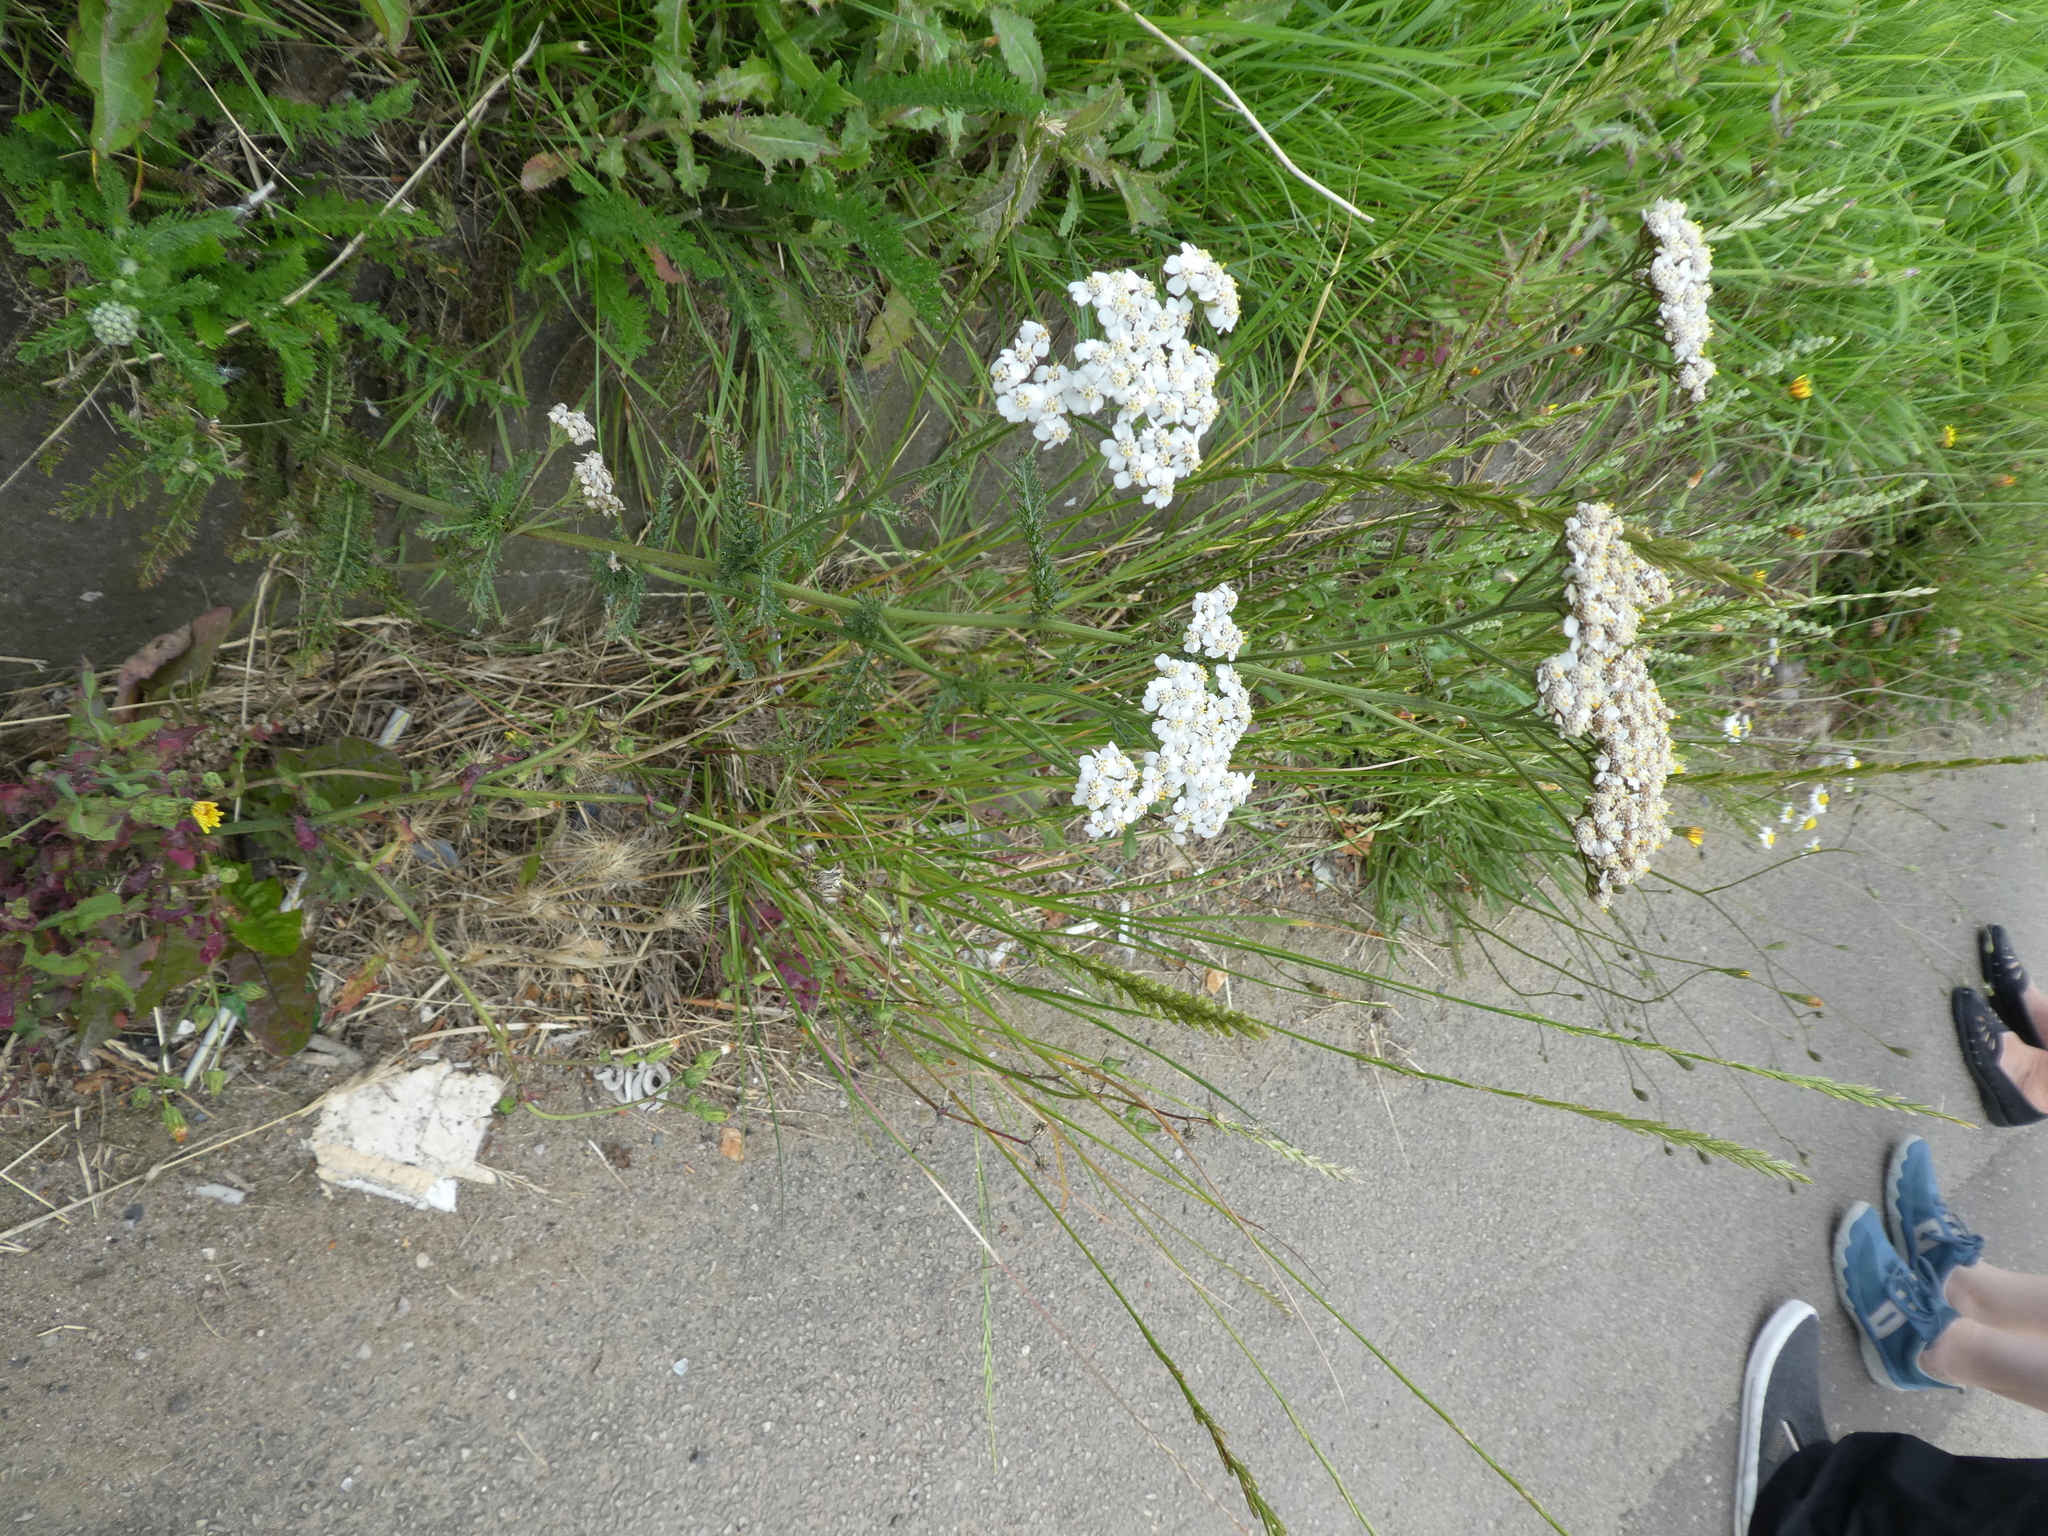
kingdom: Plantae
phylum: Tracheophyta
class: Magnoliopsida
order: Asterales
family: Asteraceae
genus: Achillea
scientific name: Achillea millefolium
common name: Yarrow
